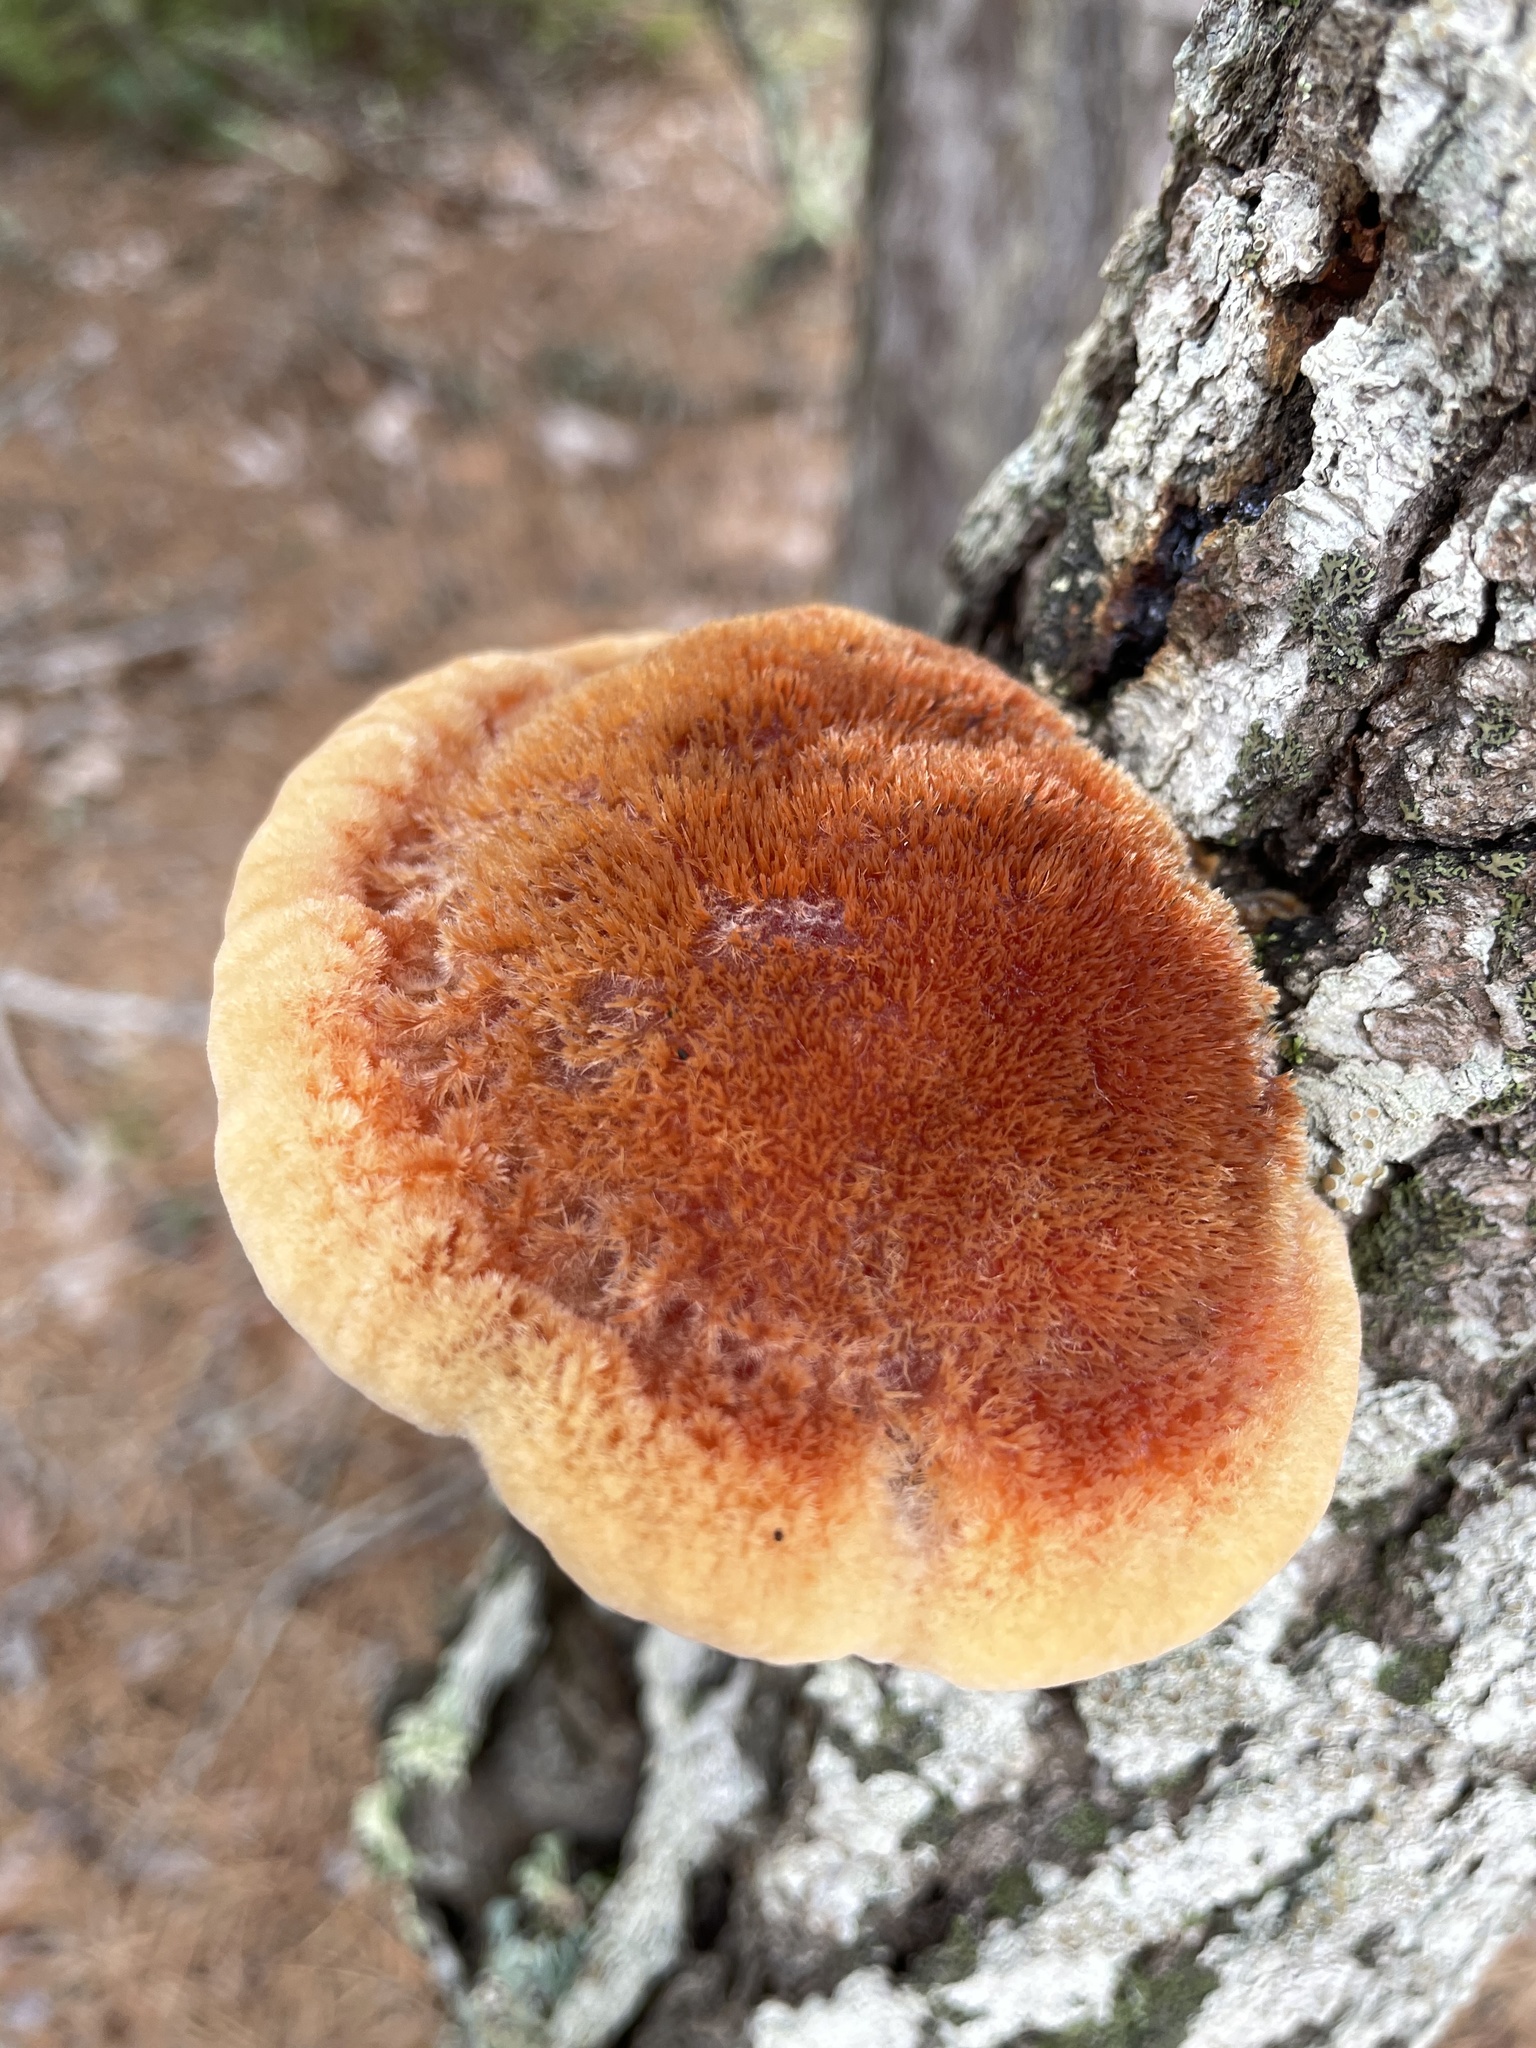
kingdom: Fungi
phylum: Basidiomycota
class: Agaricomycetes
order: Hymenochaetales
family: Hymenochaetaceae
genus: Inonotus
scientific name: Inonotus hispidus
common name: Shaggy bracket
